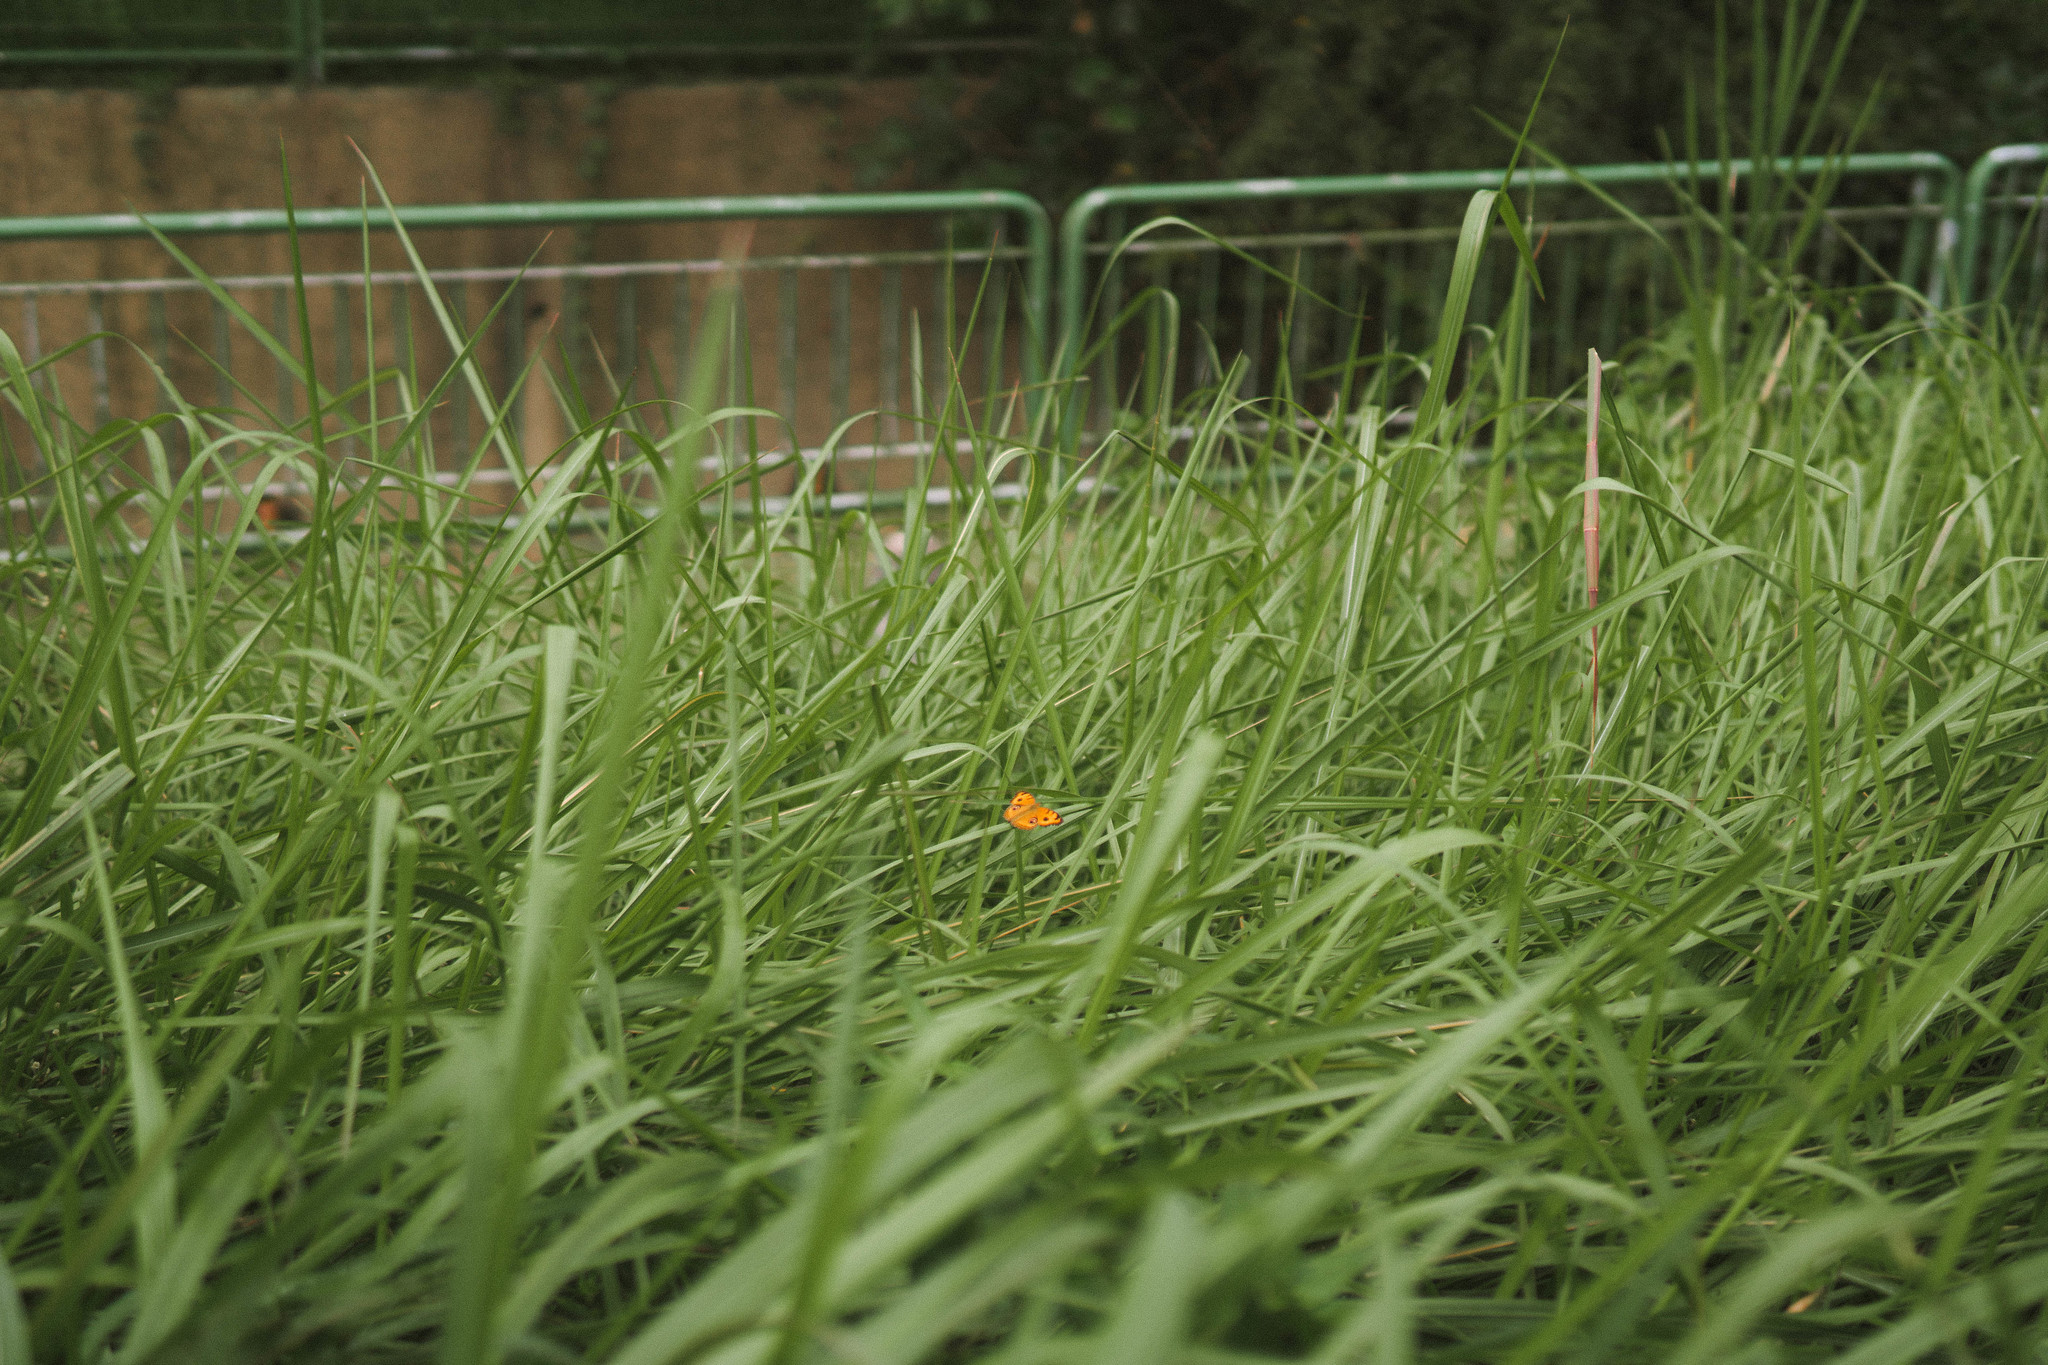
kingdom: Animalia
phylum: Arthropoda
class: Insecta
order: Lepidoptera
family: Nymphalidae
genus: Junonia
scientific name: Junonia almana
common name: Peacock pansy
